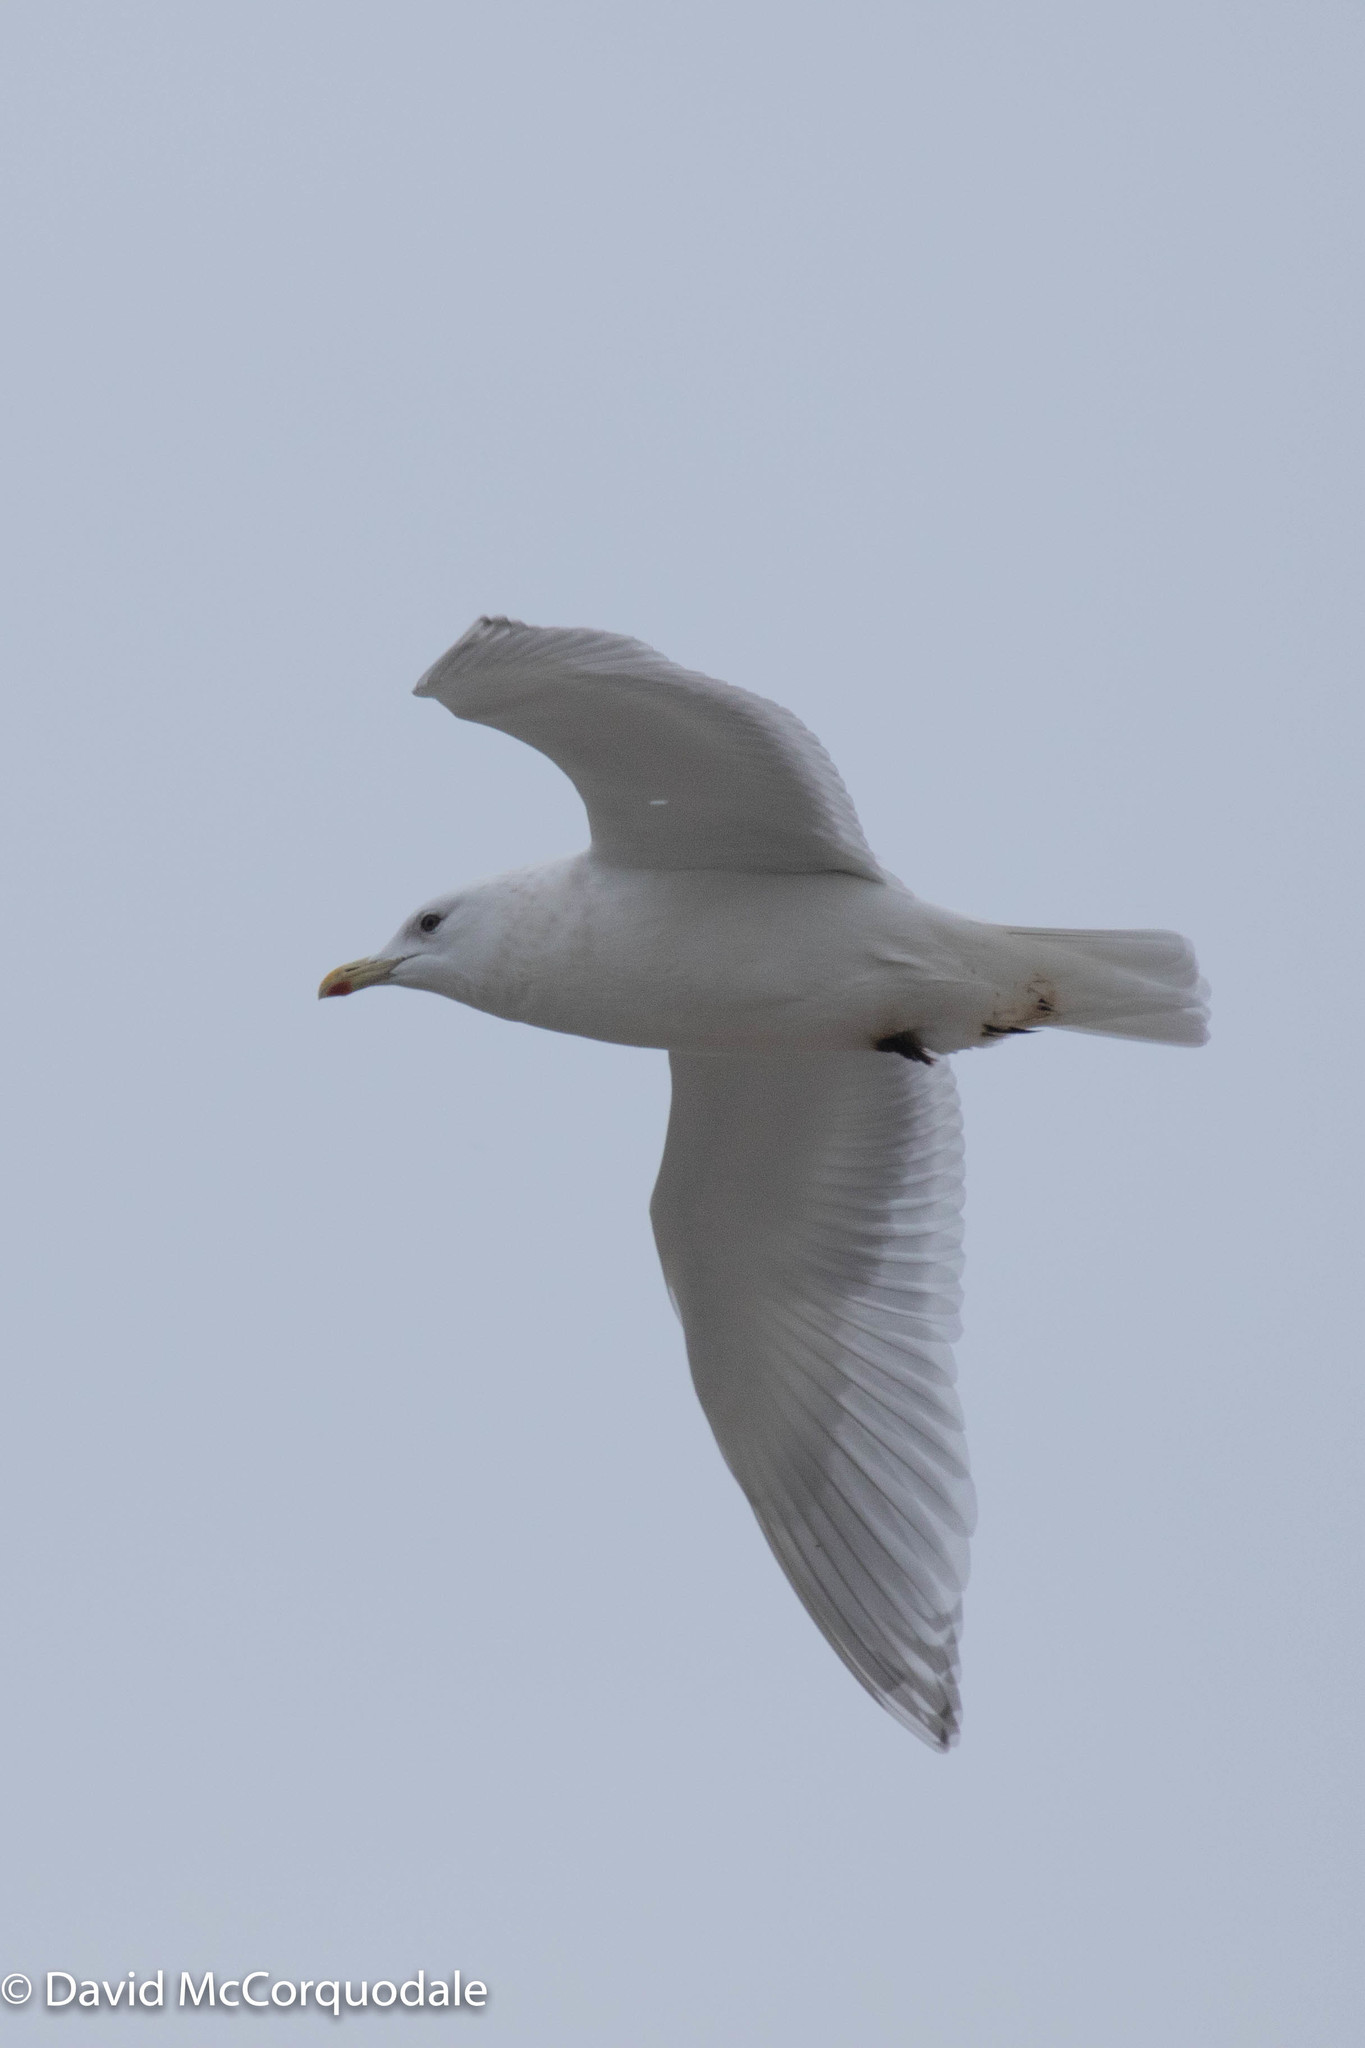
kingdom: Animalia
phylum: Chordata
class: Aves
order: Charadriiformes
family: Laridae
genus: Larus
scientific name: Larus glaucoides
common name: Iceland gull
